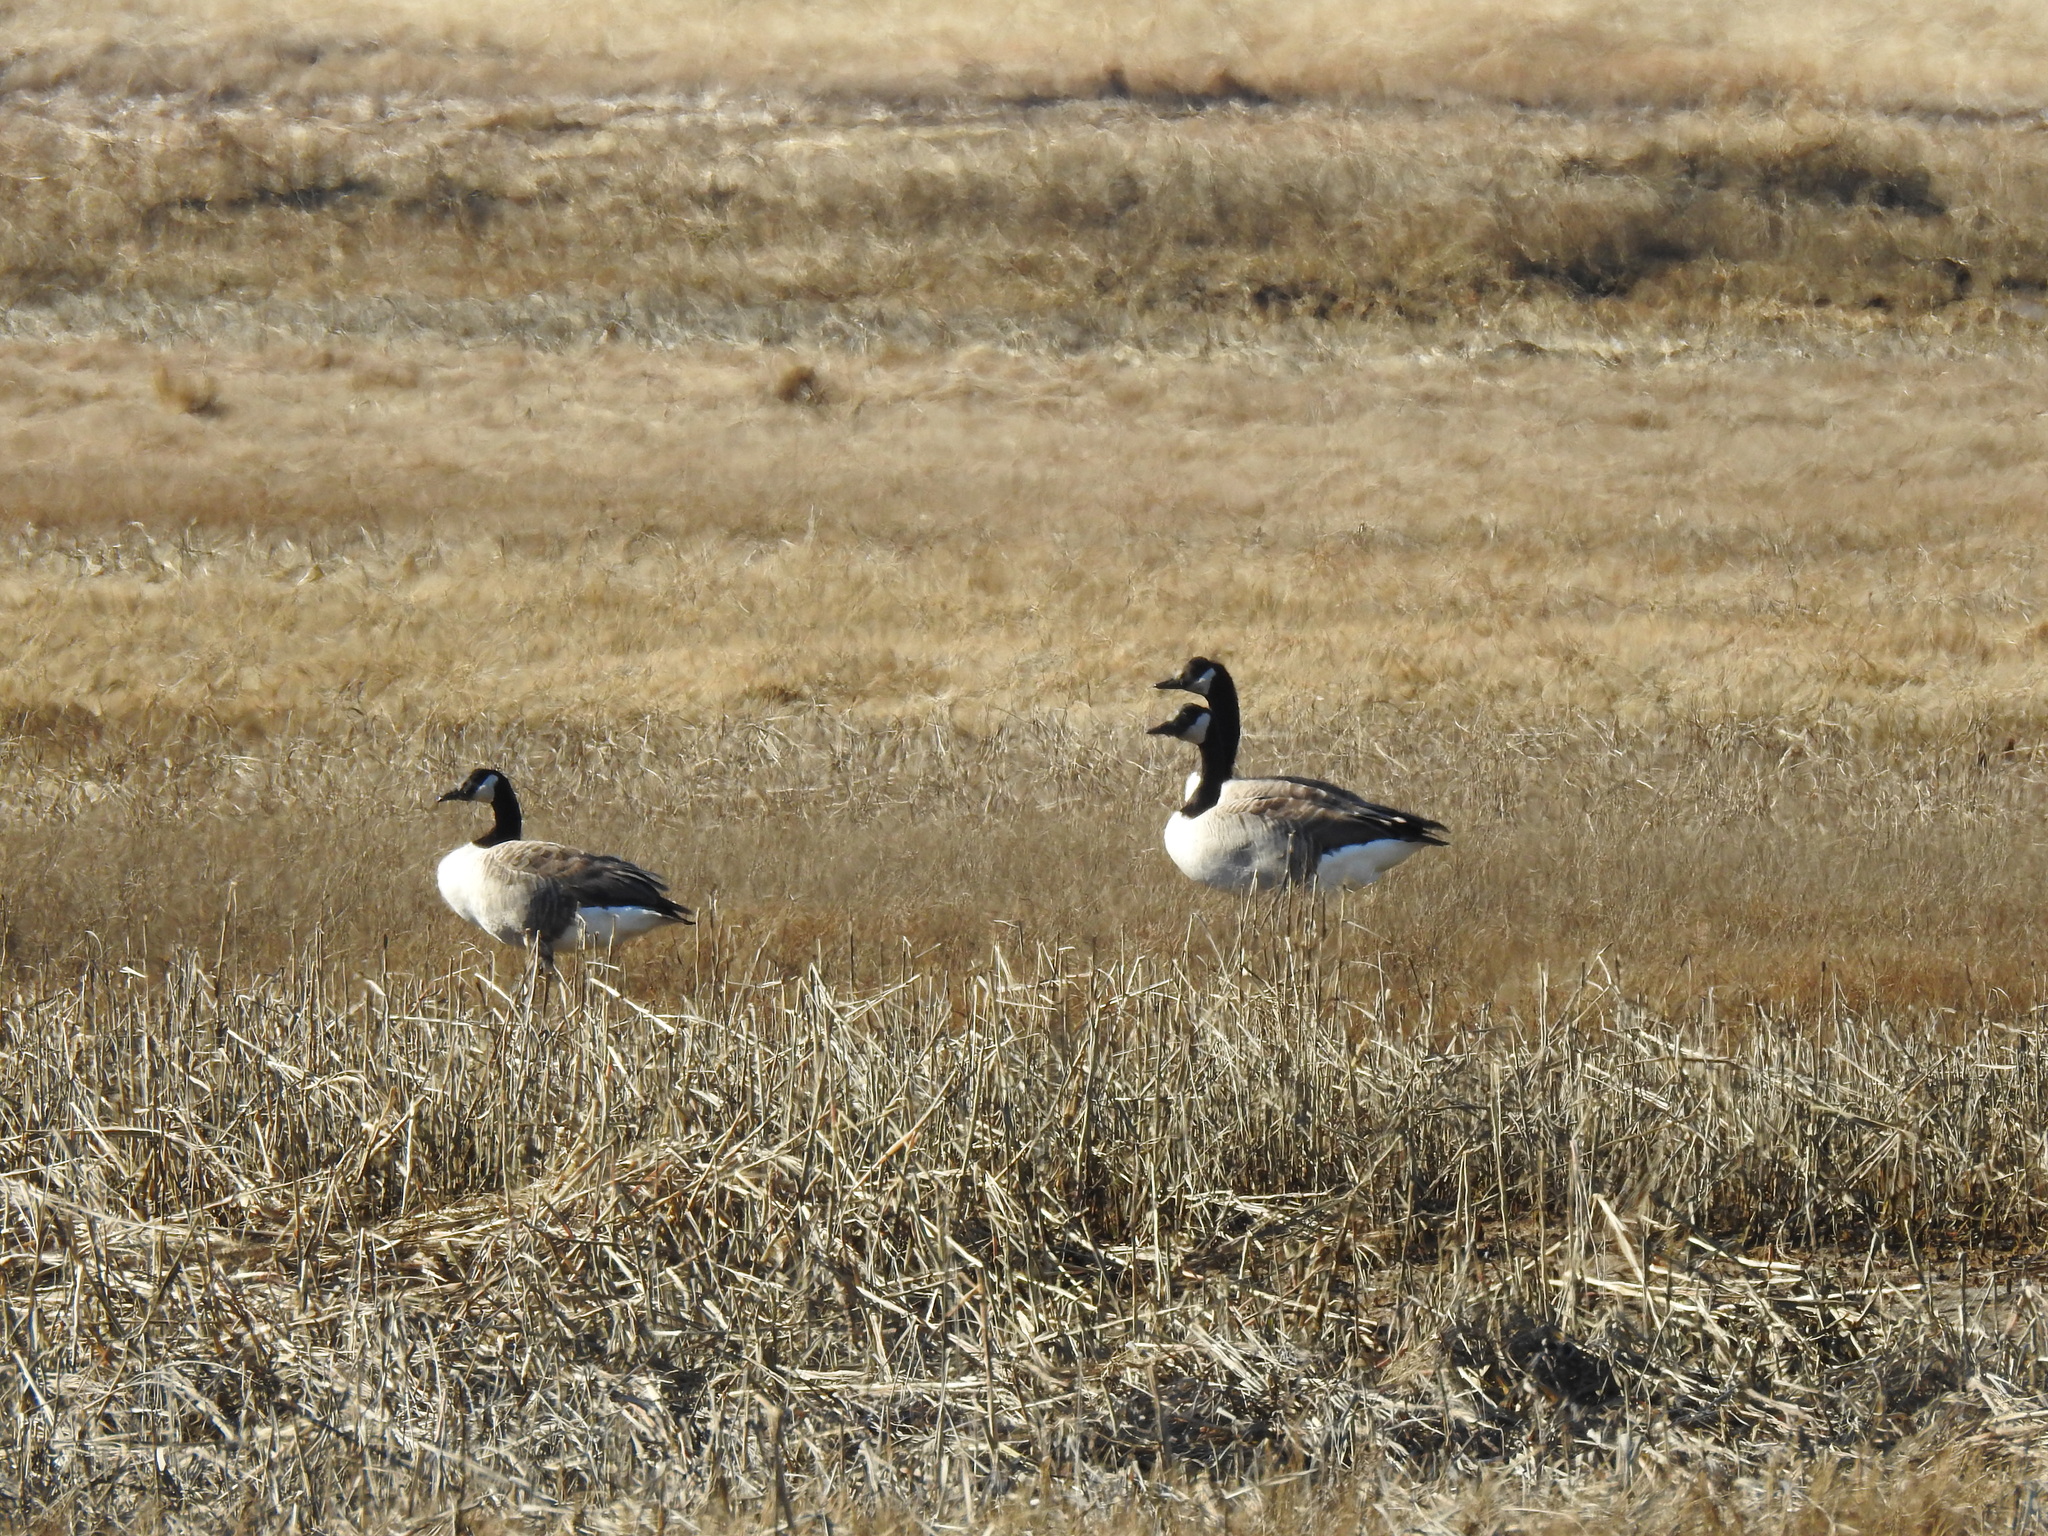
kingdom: Animalia
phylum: Chordata
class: Aves
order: Anseriformes
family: Anatidae
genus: Branta
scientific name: Branta canadensis
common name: Canada goose
